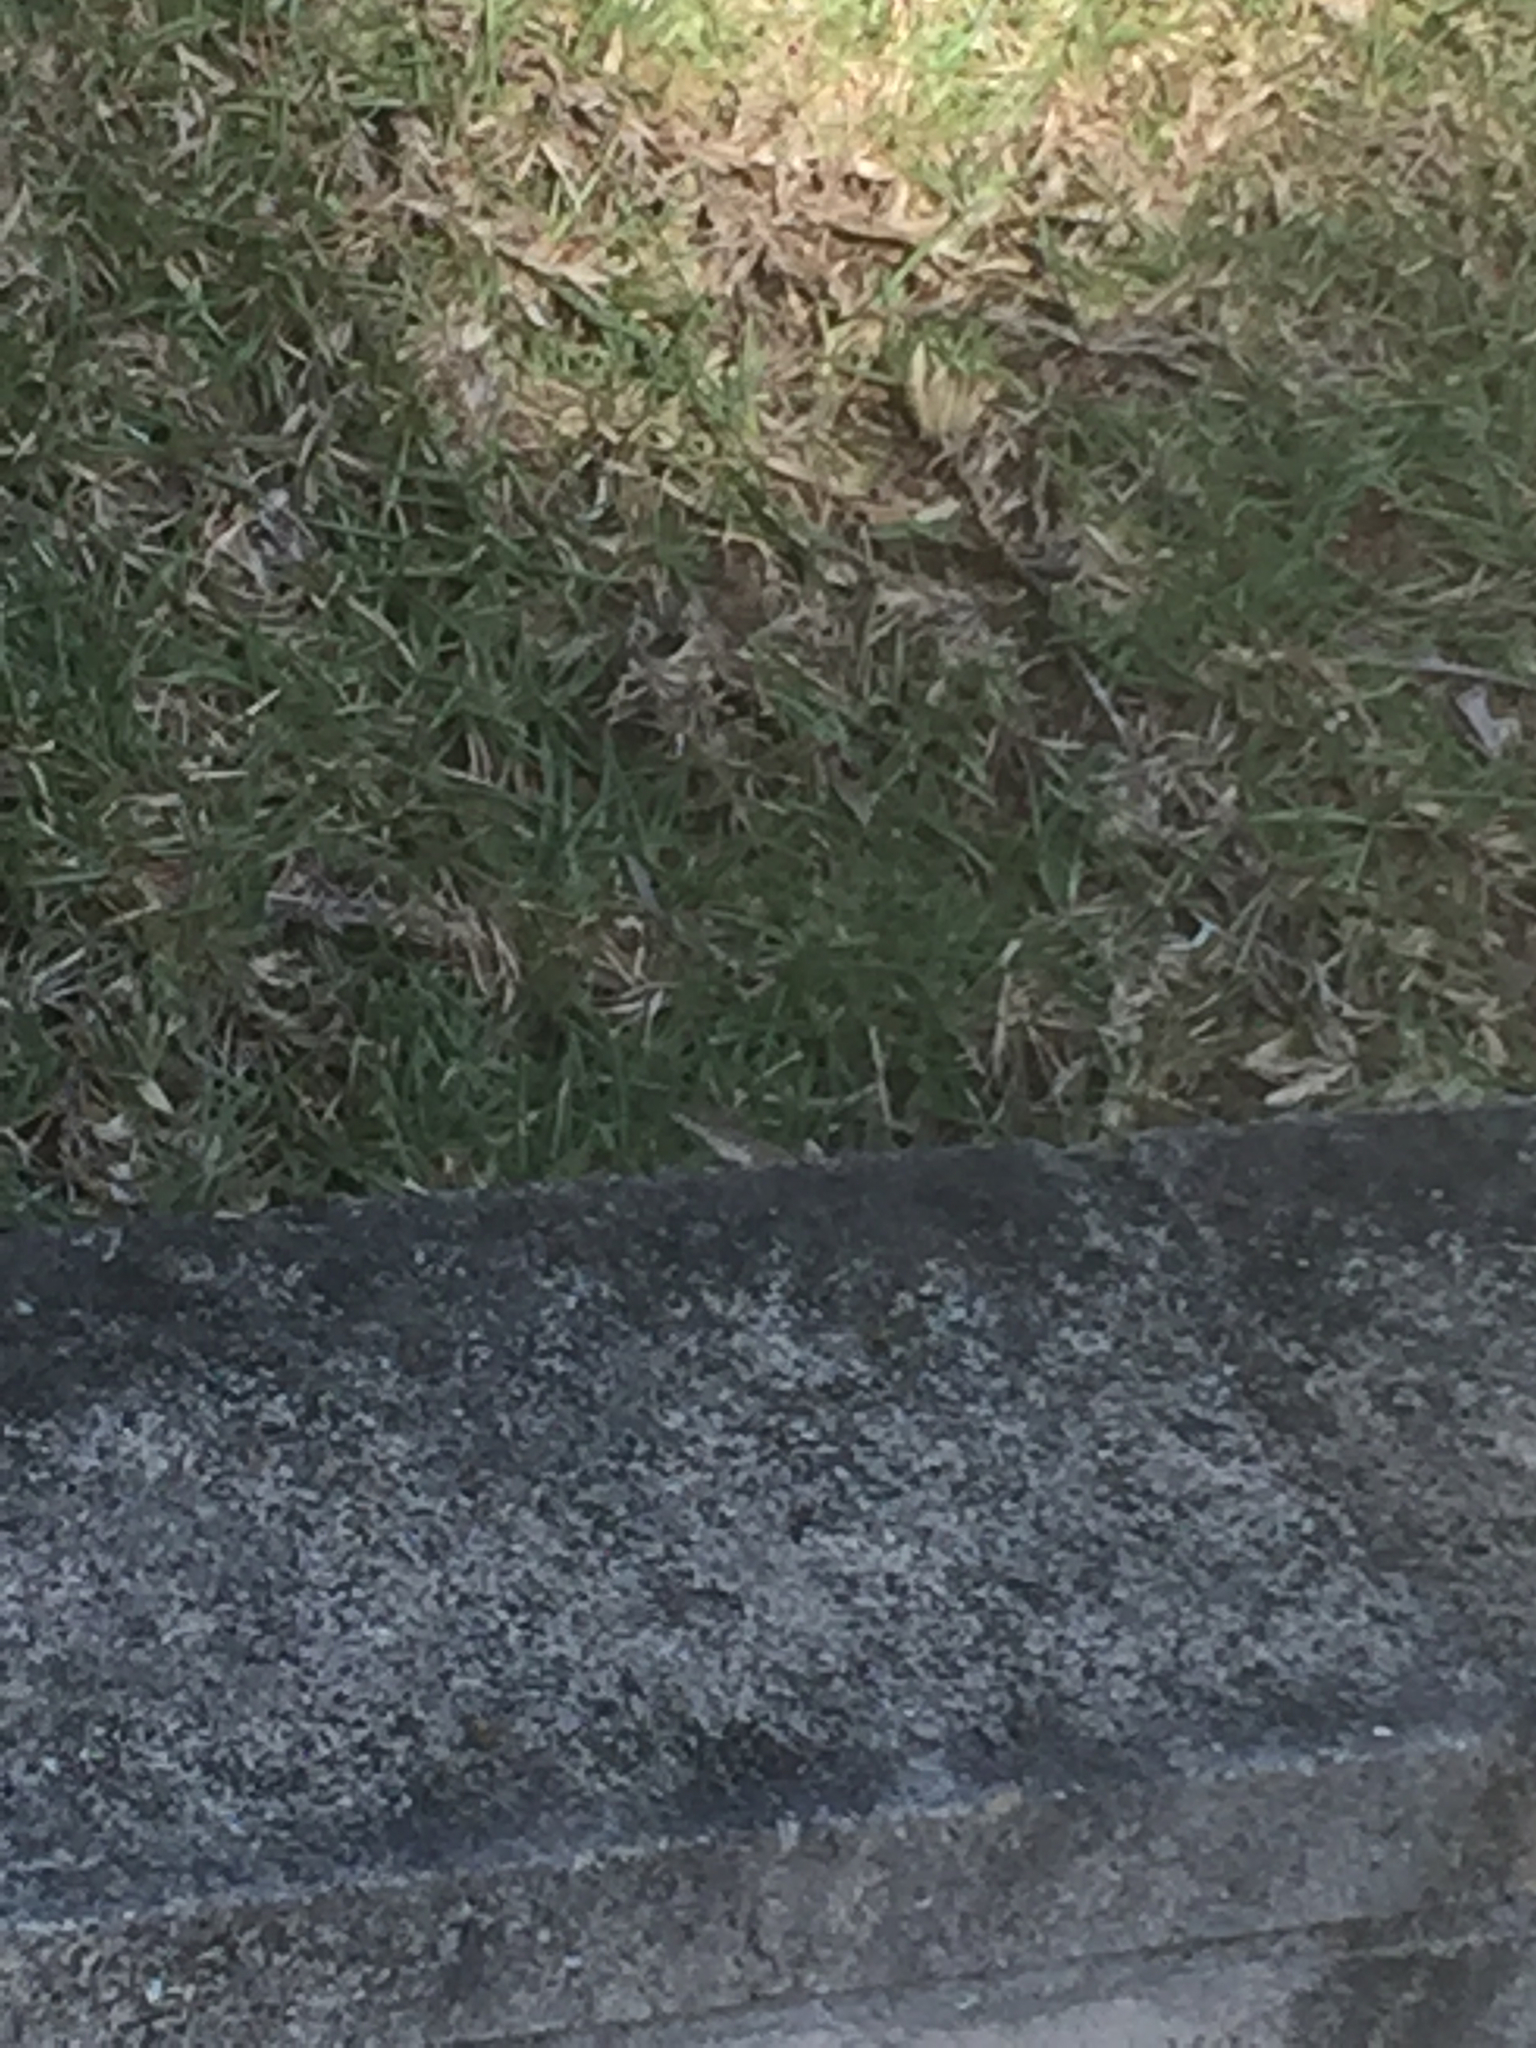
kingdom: Animalia
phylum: Chordata
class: Squamata
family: Dactyloidae
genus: Anolis
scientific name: Anolis sagrei
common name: Brown anole
